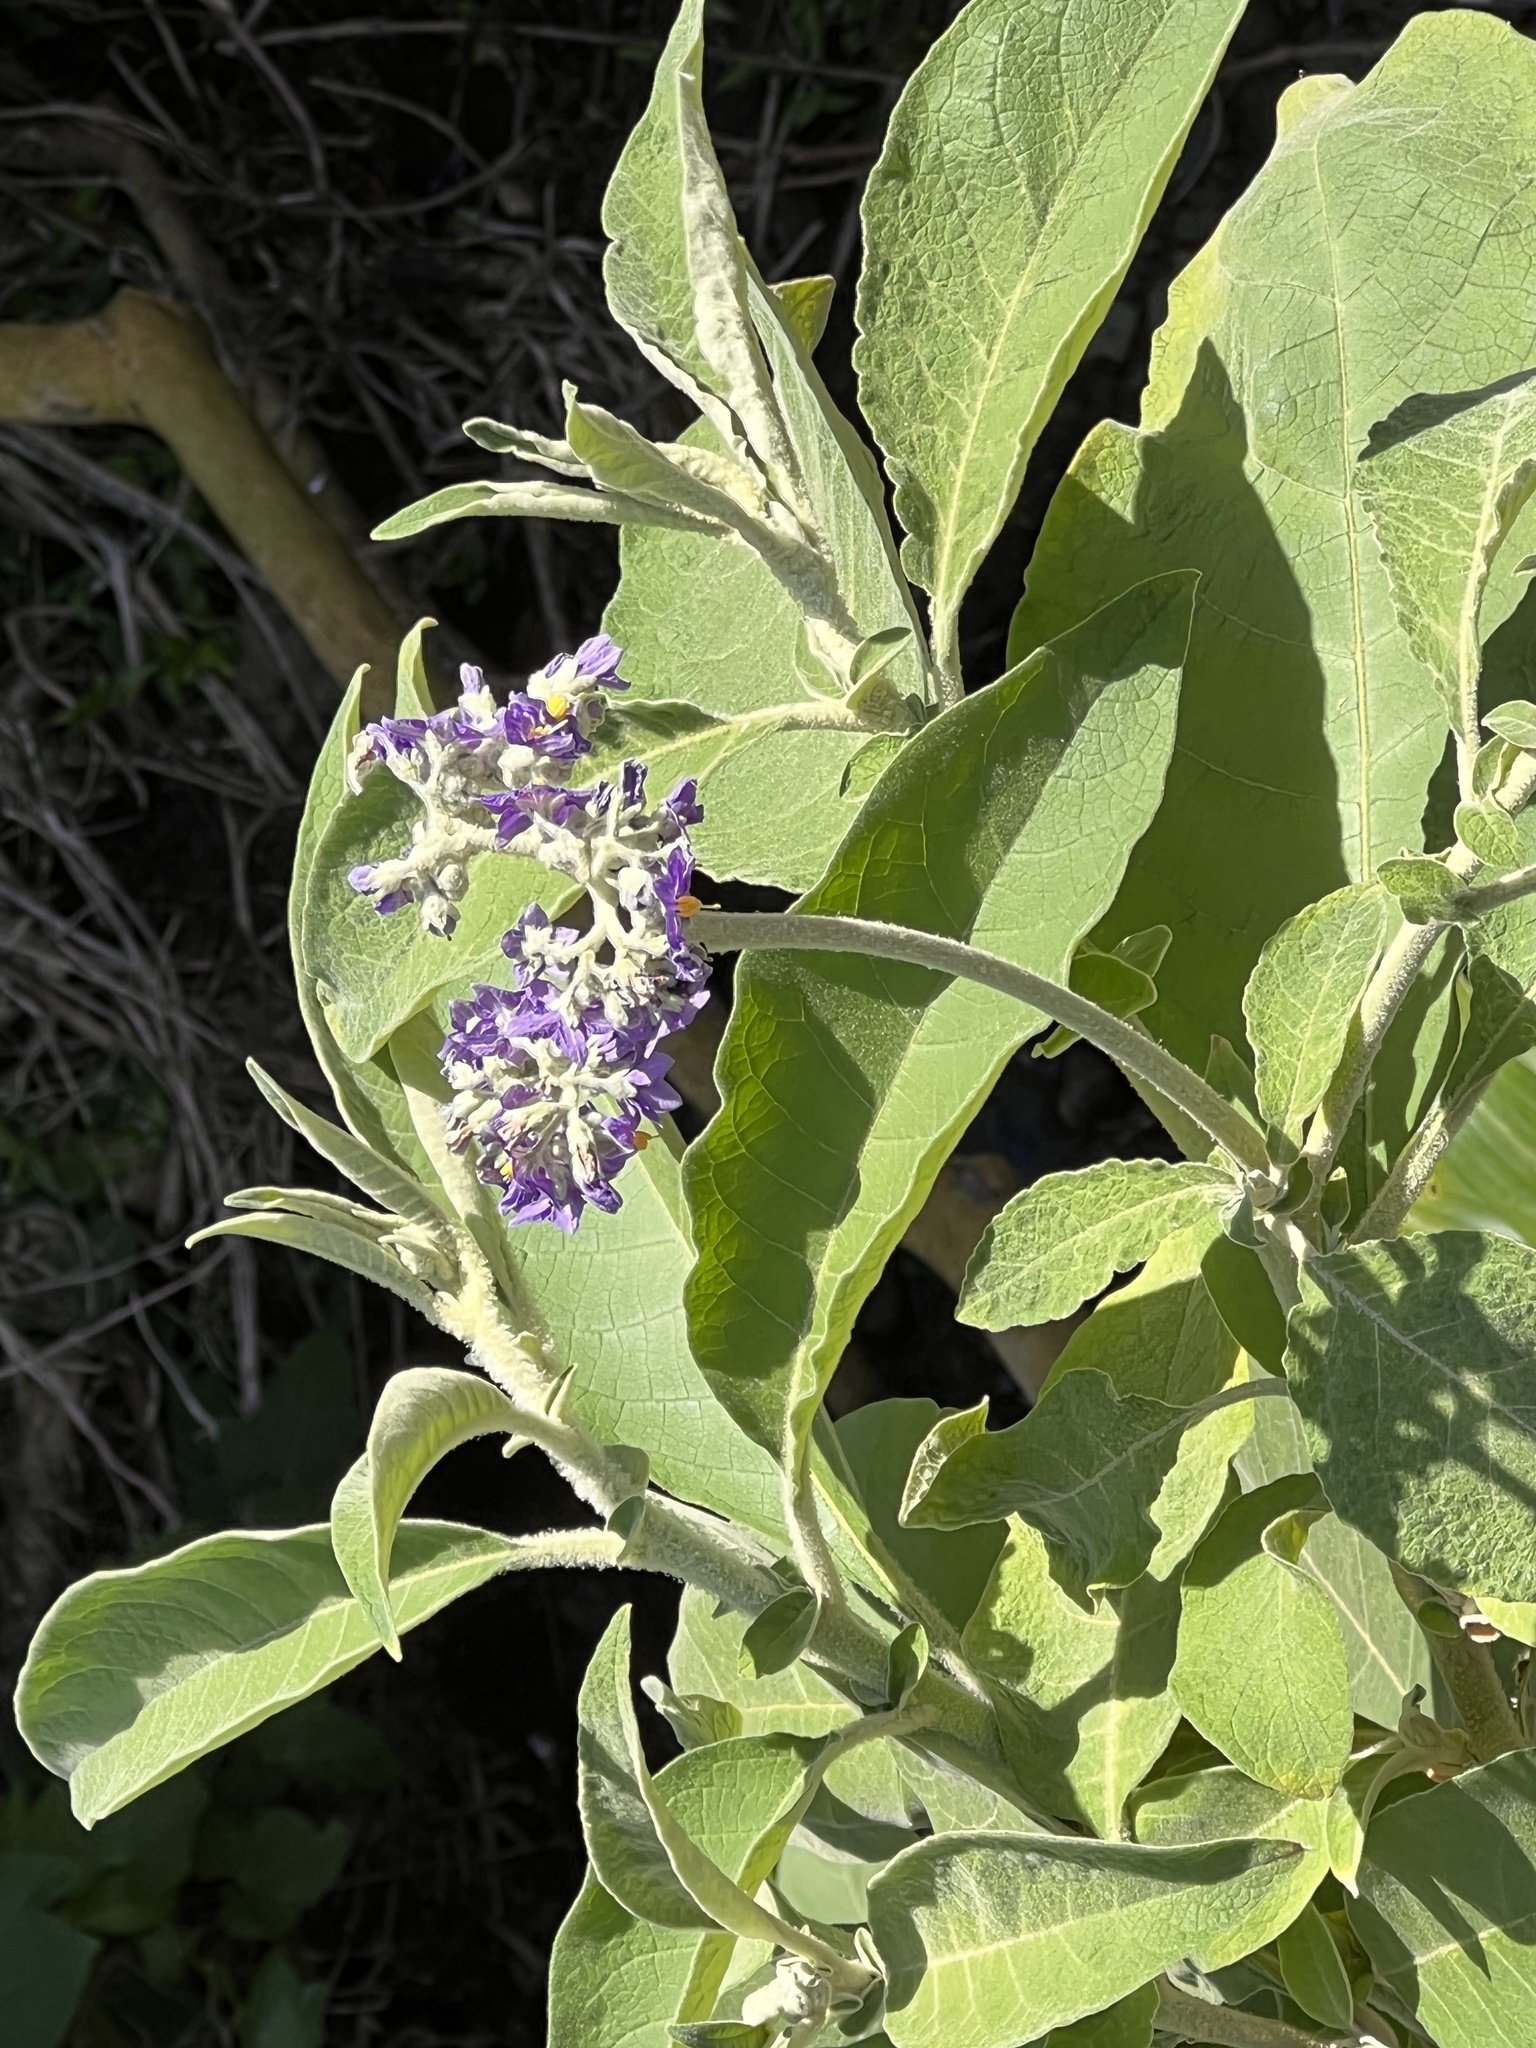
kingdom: Plantae
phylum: Tracheophyta
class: Magnoliopsida
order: Solanales
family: Solanaceae
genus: Solanum
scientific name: Solanum mauritianum
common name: Earleaf nightshade
